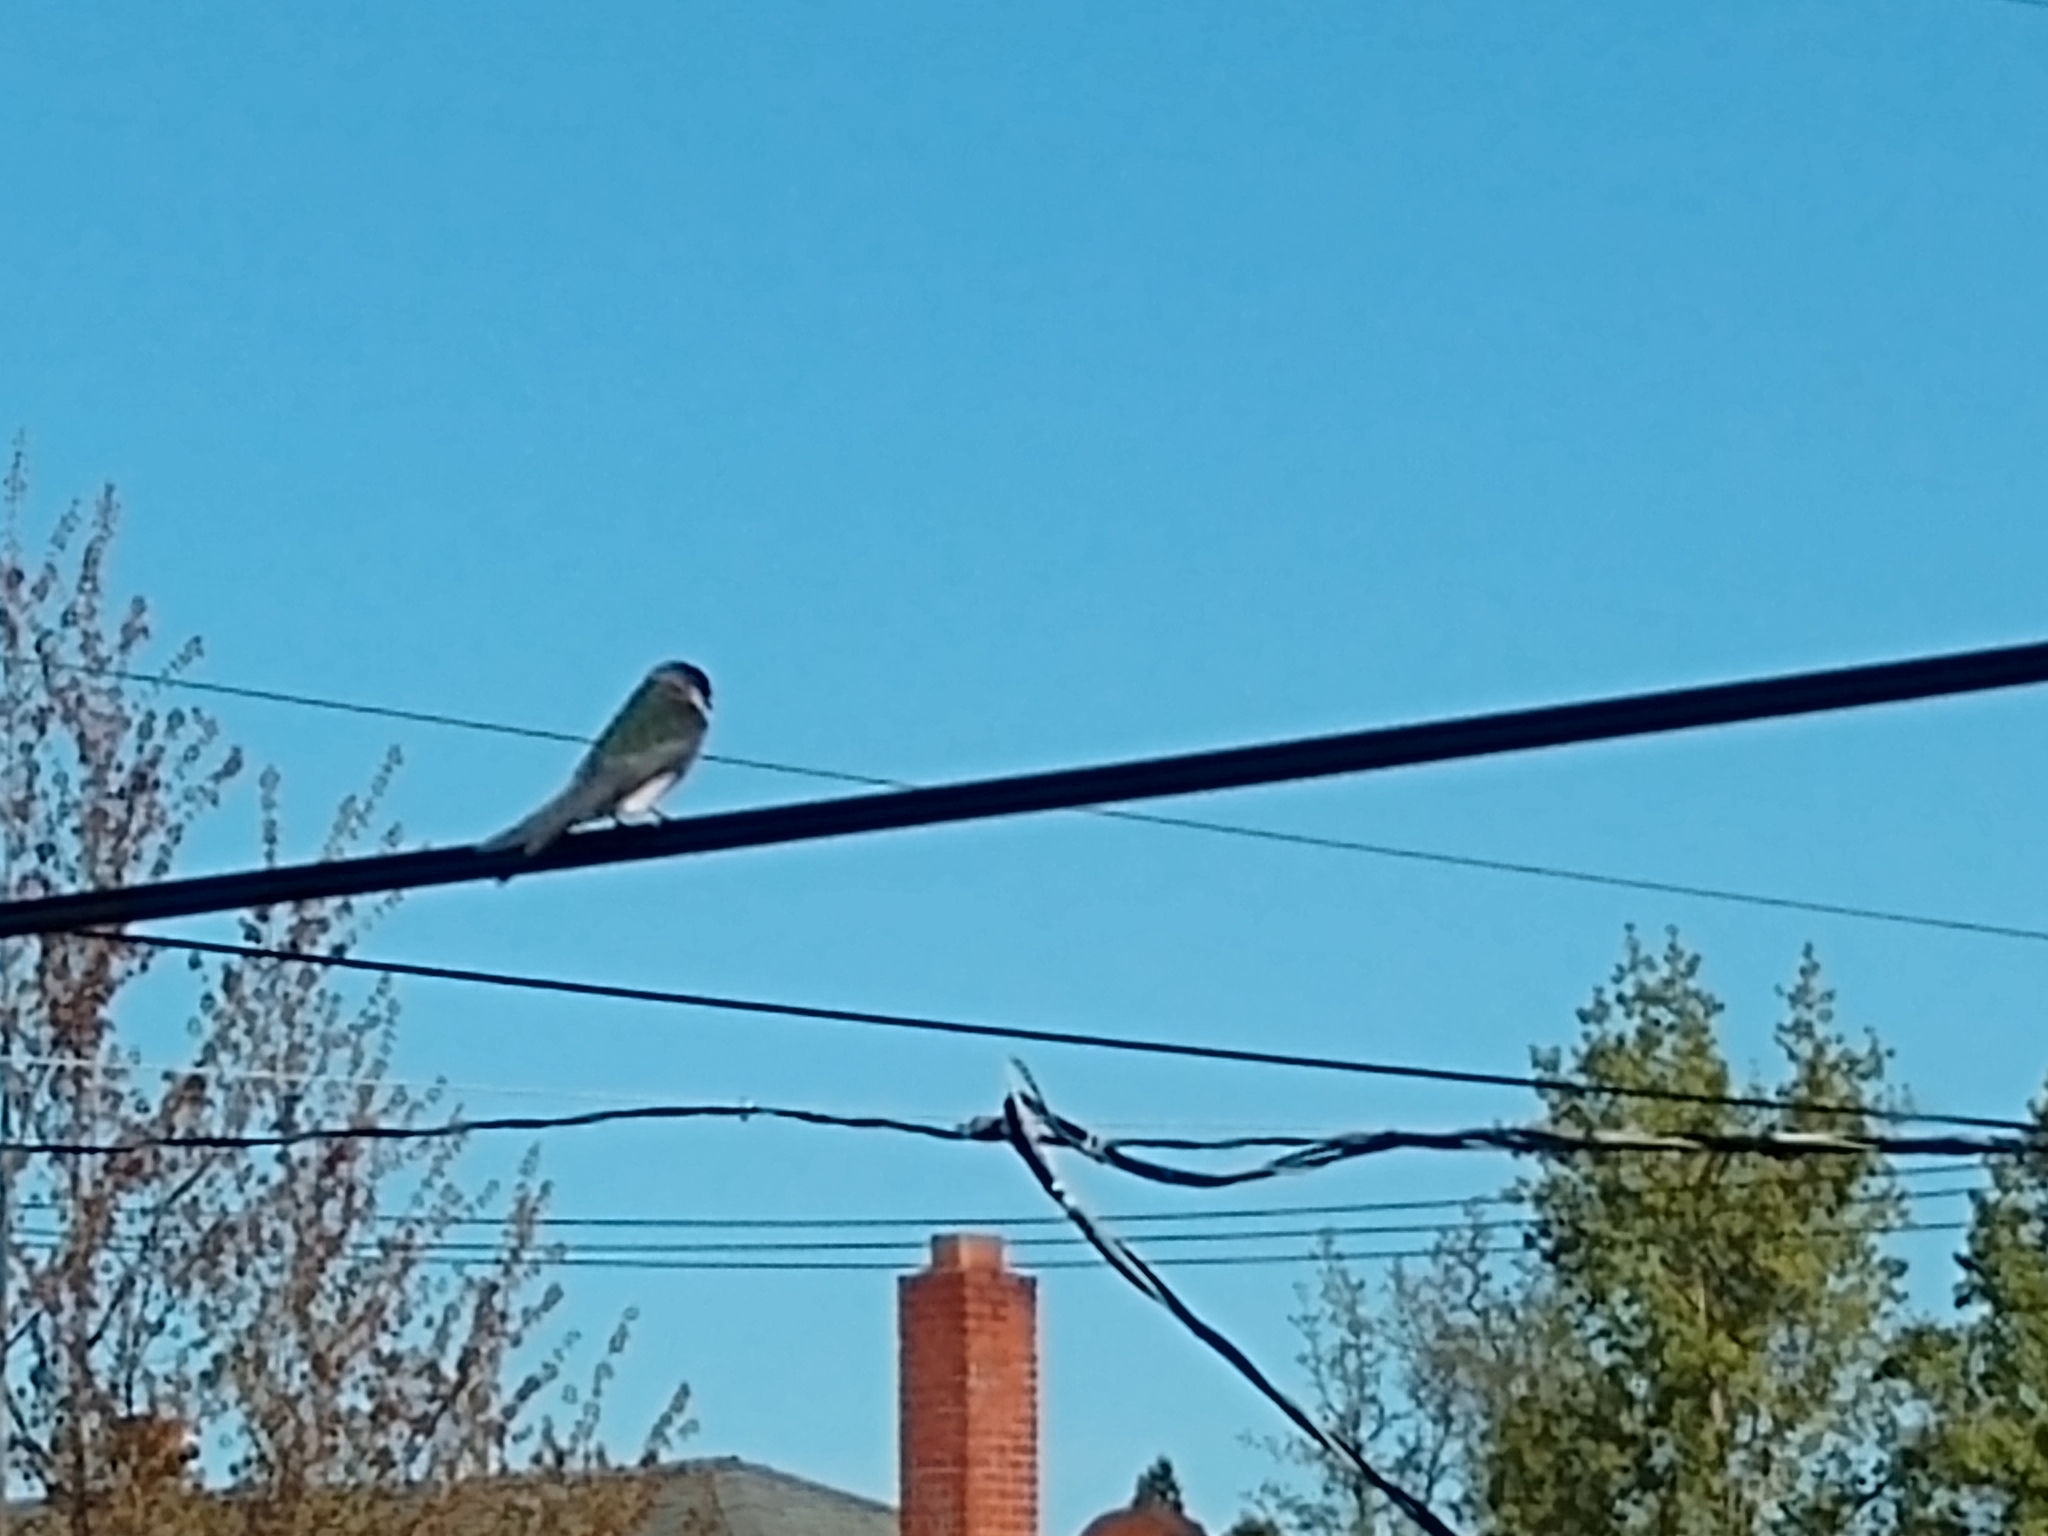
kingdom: Animalia
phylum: Chordata
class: Aves
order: Passeriformes
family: Hirundinidae
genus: Tachycineta
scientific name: Tachycineta thalassina
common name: Violet-green swallow
